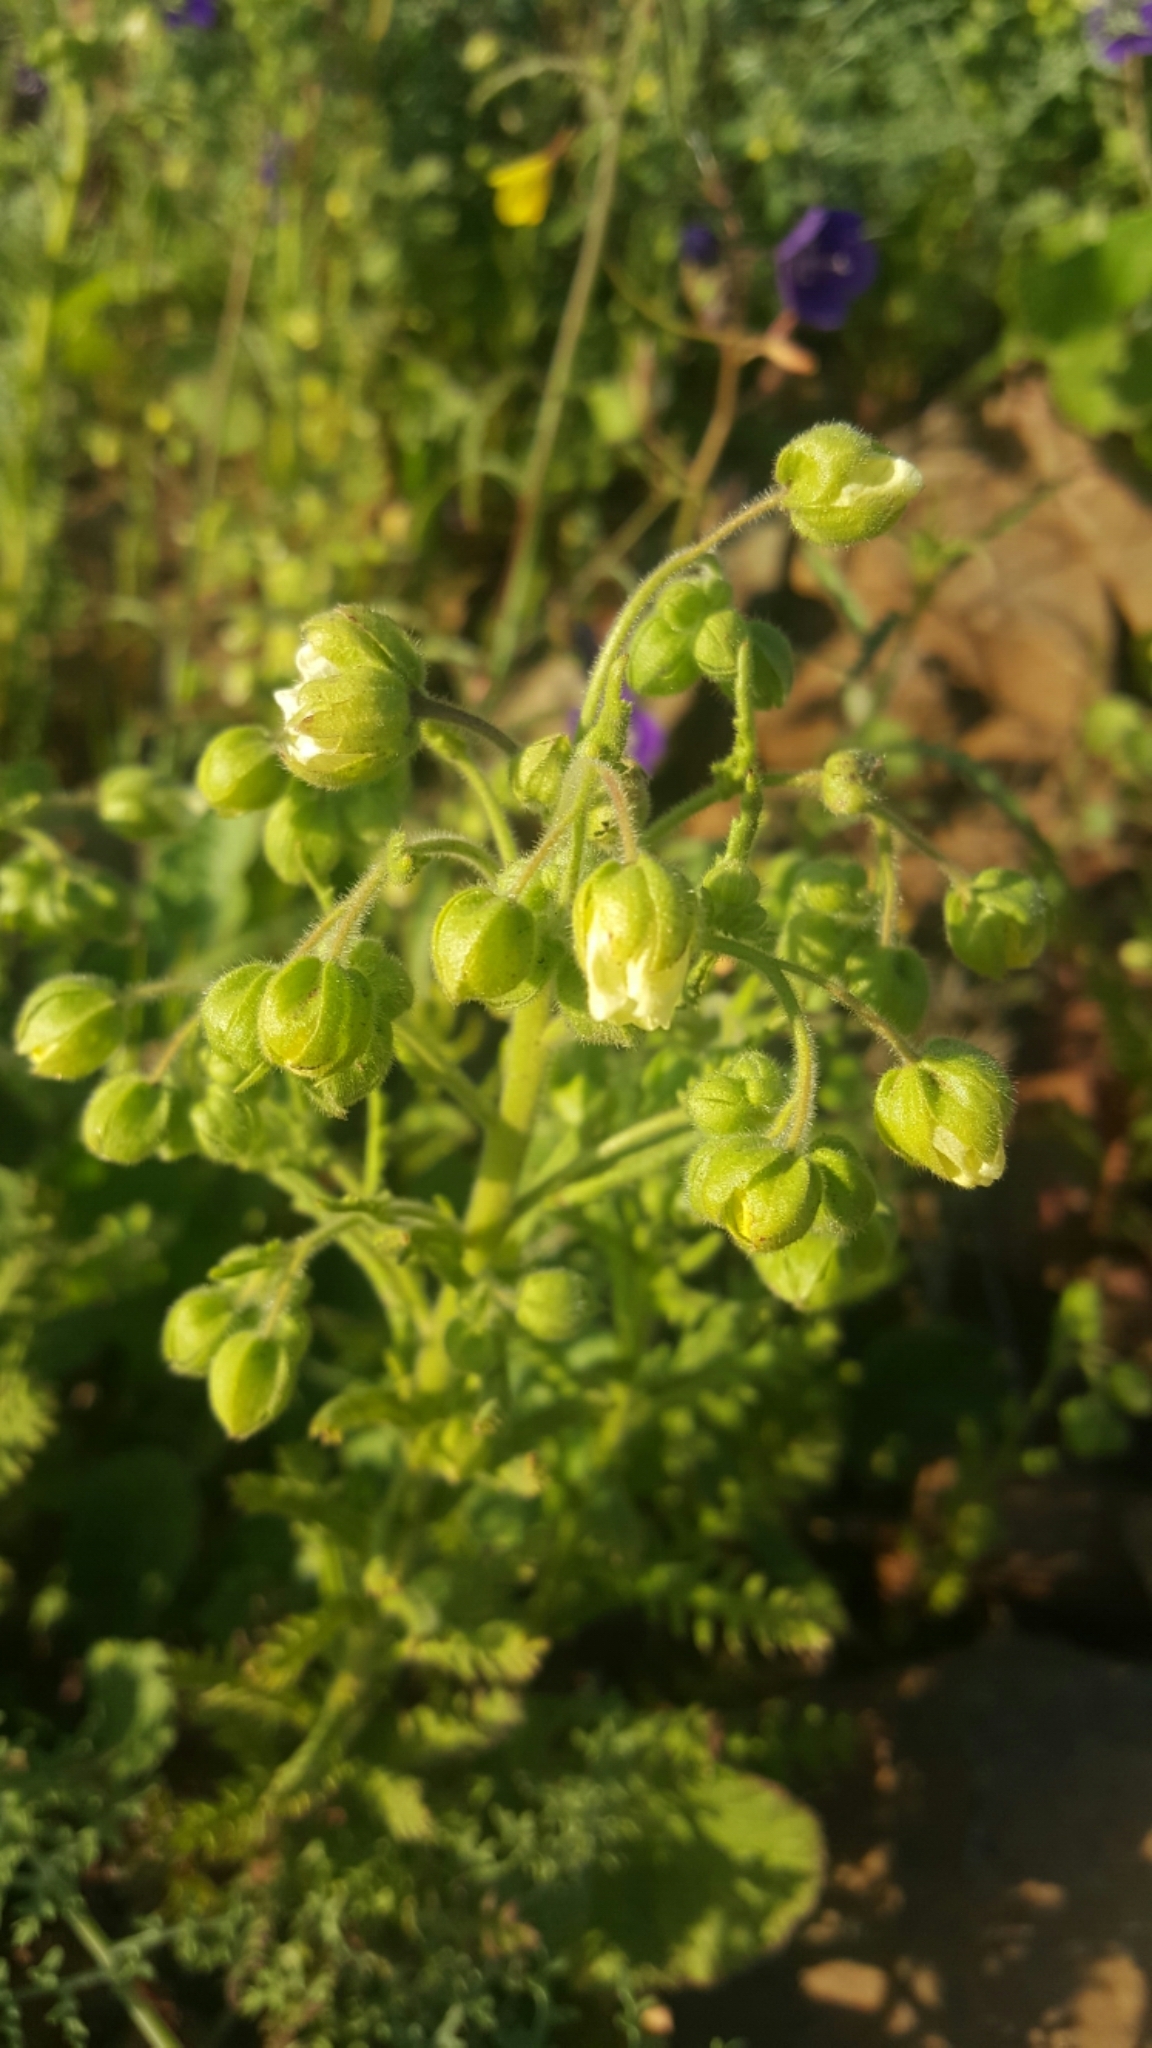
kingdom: Plantae
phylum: Tracheophyta
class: Magnoliopsida
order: Boraginales
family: Hydrophyllaceae
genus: Emmenanthe
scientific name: Emmenanthe penduliflora
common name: Whispering-bells
